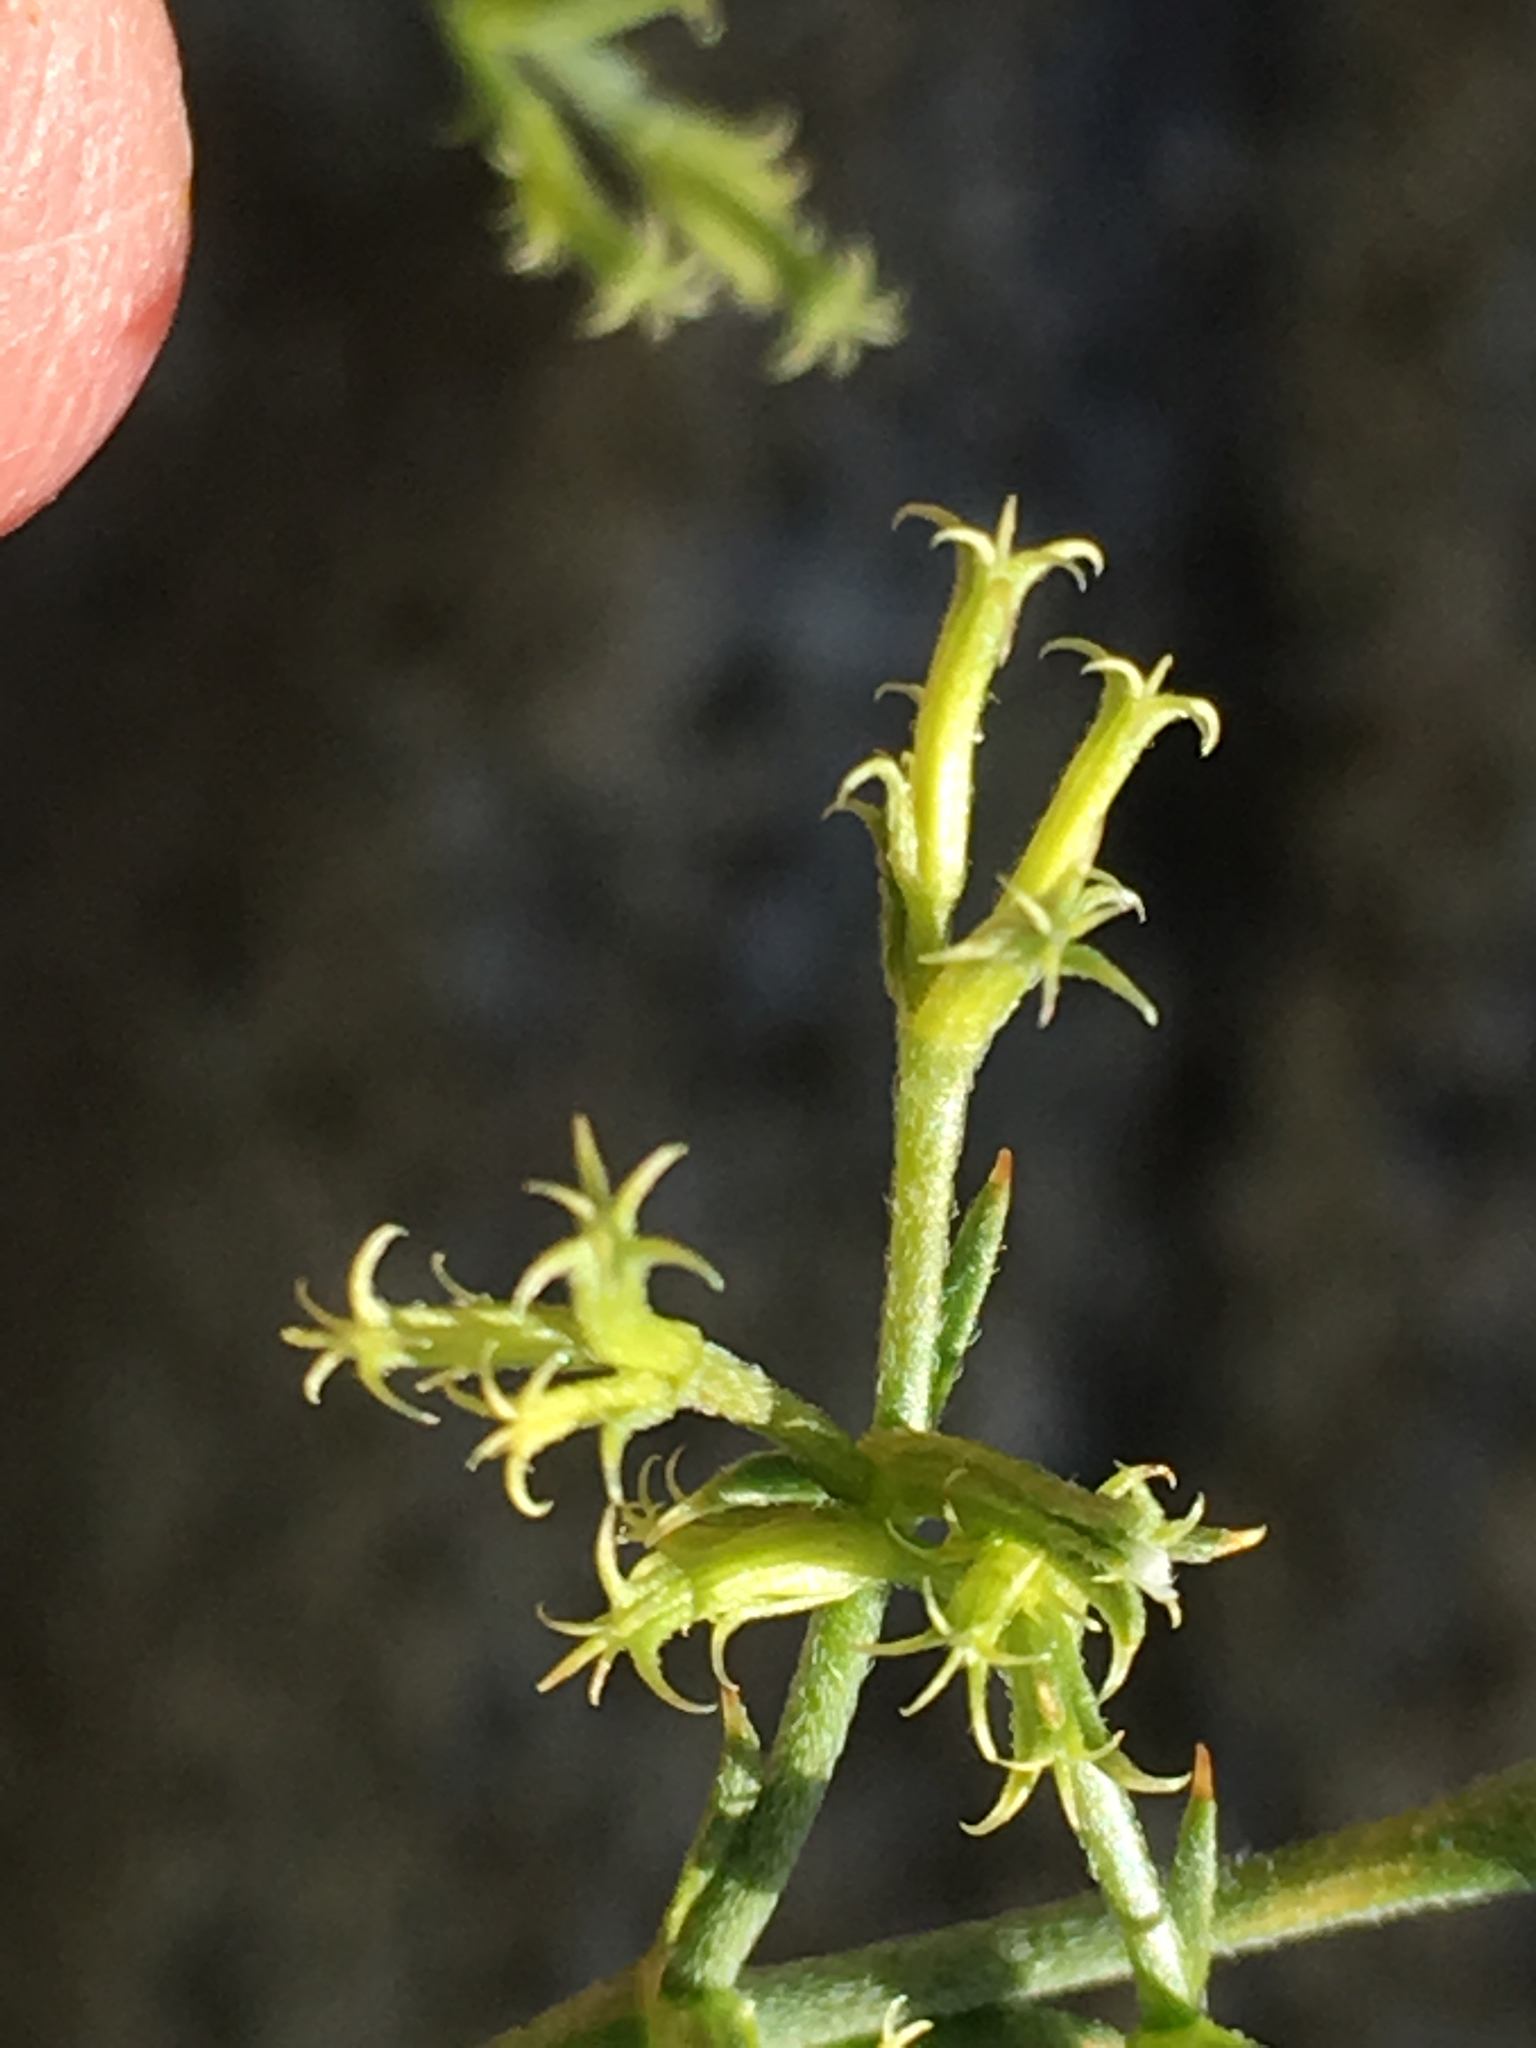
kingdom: Plantae
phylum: Tracheophyta
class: Magnoliopsida
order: Caryophyllales
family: Polygonaceae
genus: Chorizanthe
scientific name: Chorizanthe brevicornu
